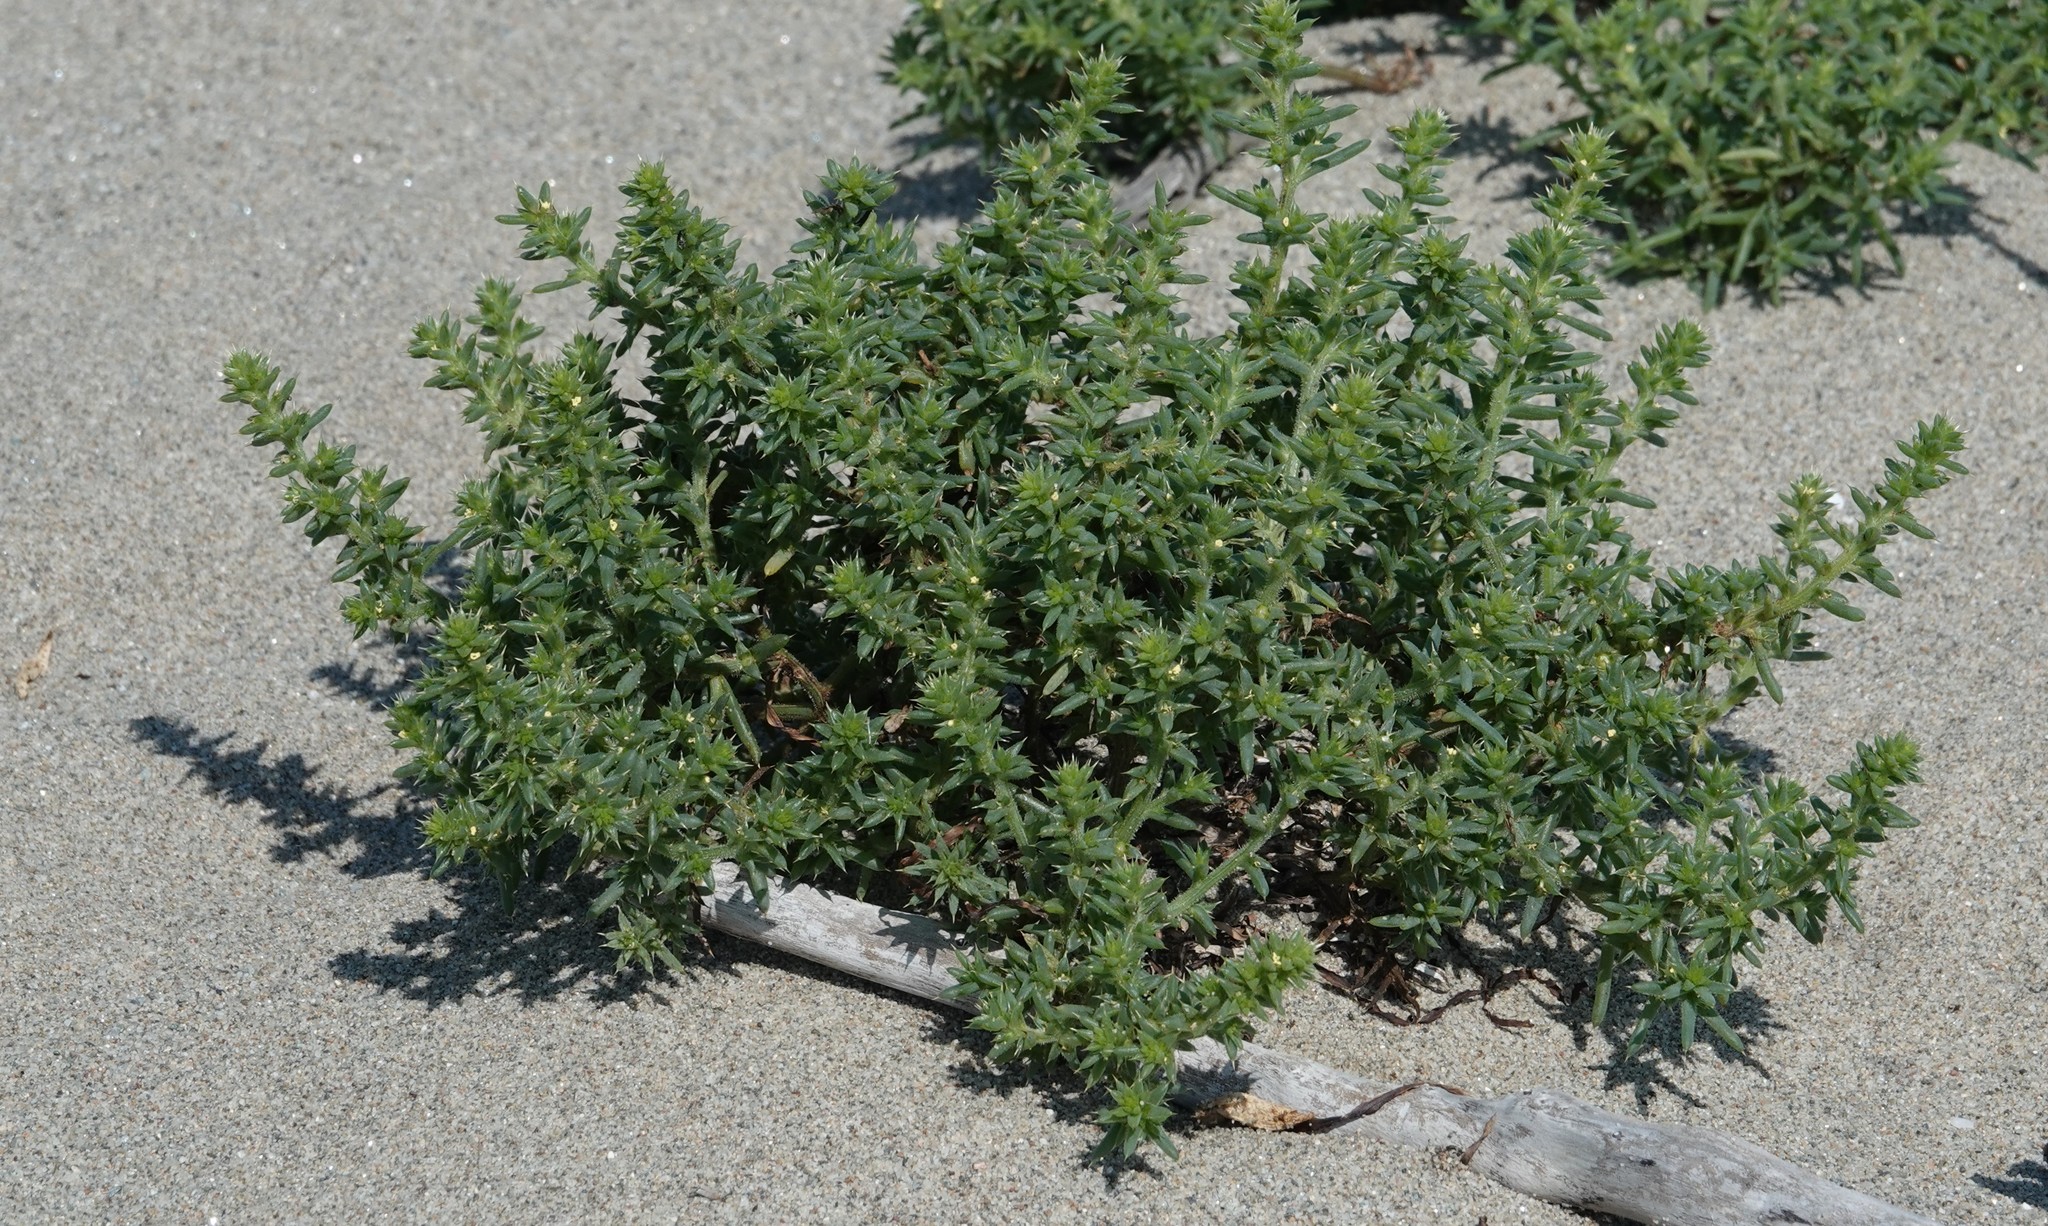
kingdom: Plantae
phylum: Tracheophyta
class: Magnoliopsida
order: Caryophyllales
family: Amaranthaceae
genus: Salsola
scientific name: Salsola kali
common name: Saltwort
